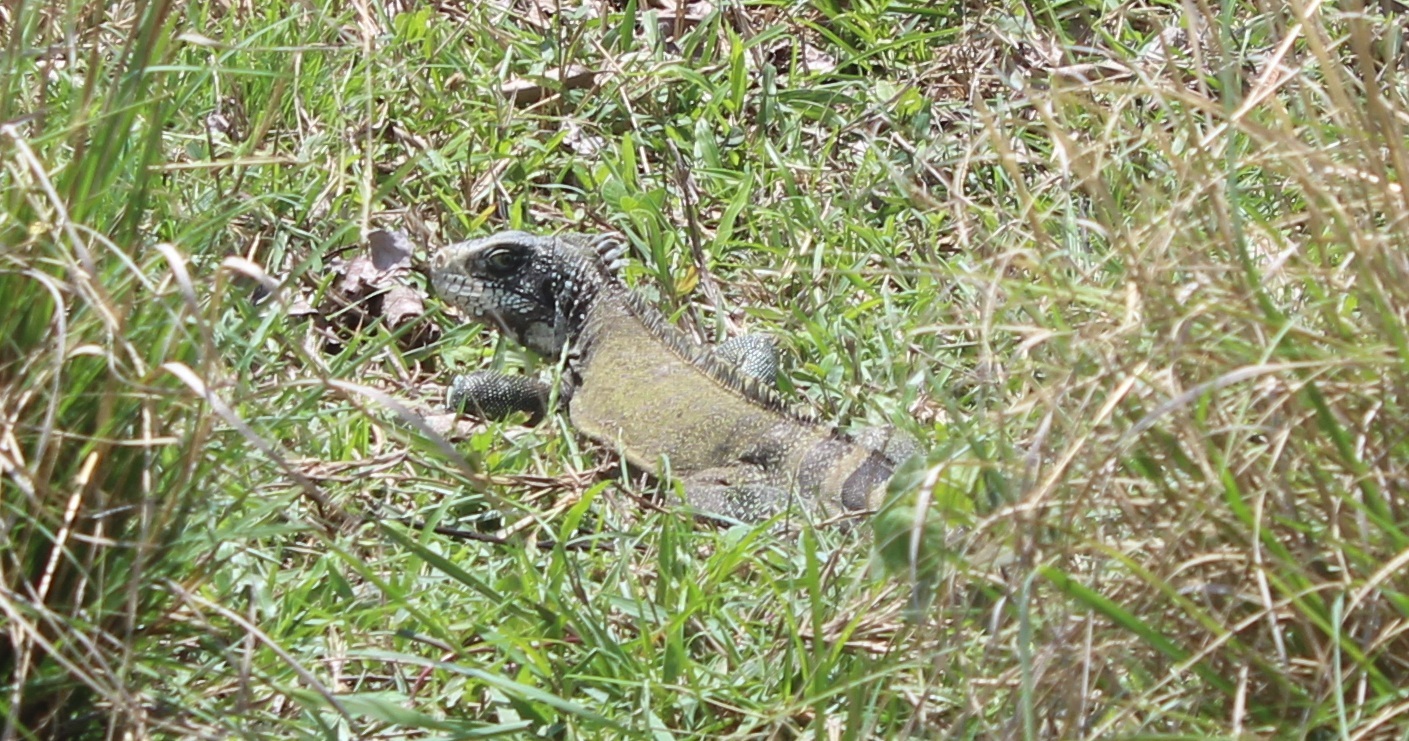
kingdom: Animalia
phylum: Chordata
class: Squamata
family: Iguanidae
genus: Iguana
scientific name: Iguana iguana
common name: Green iguana
